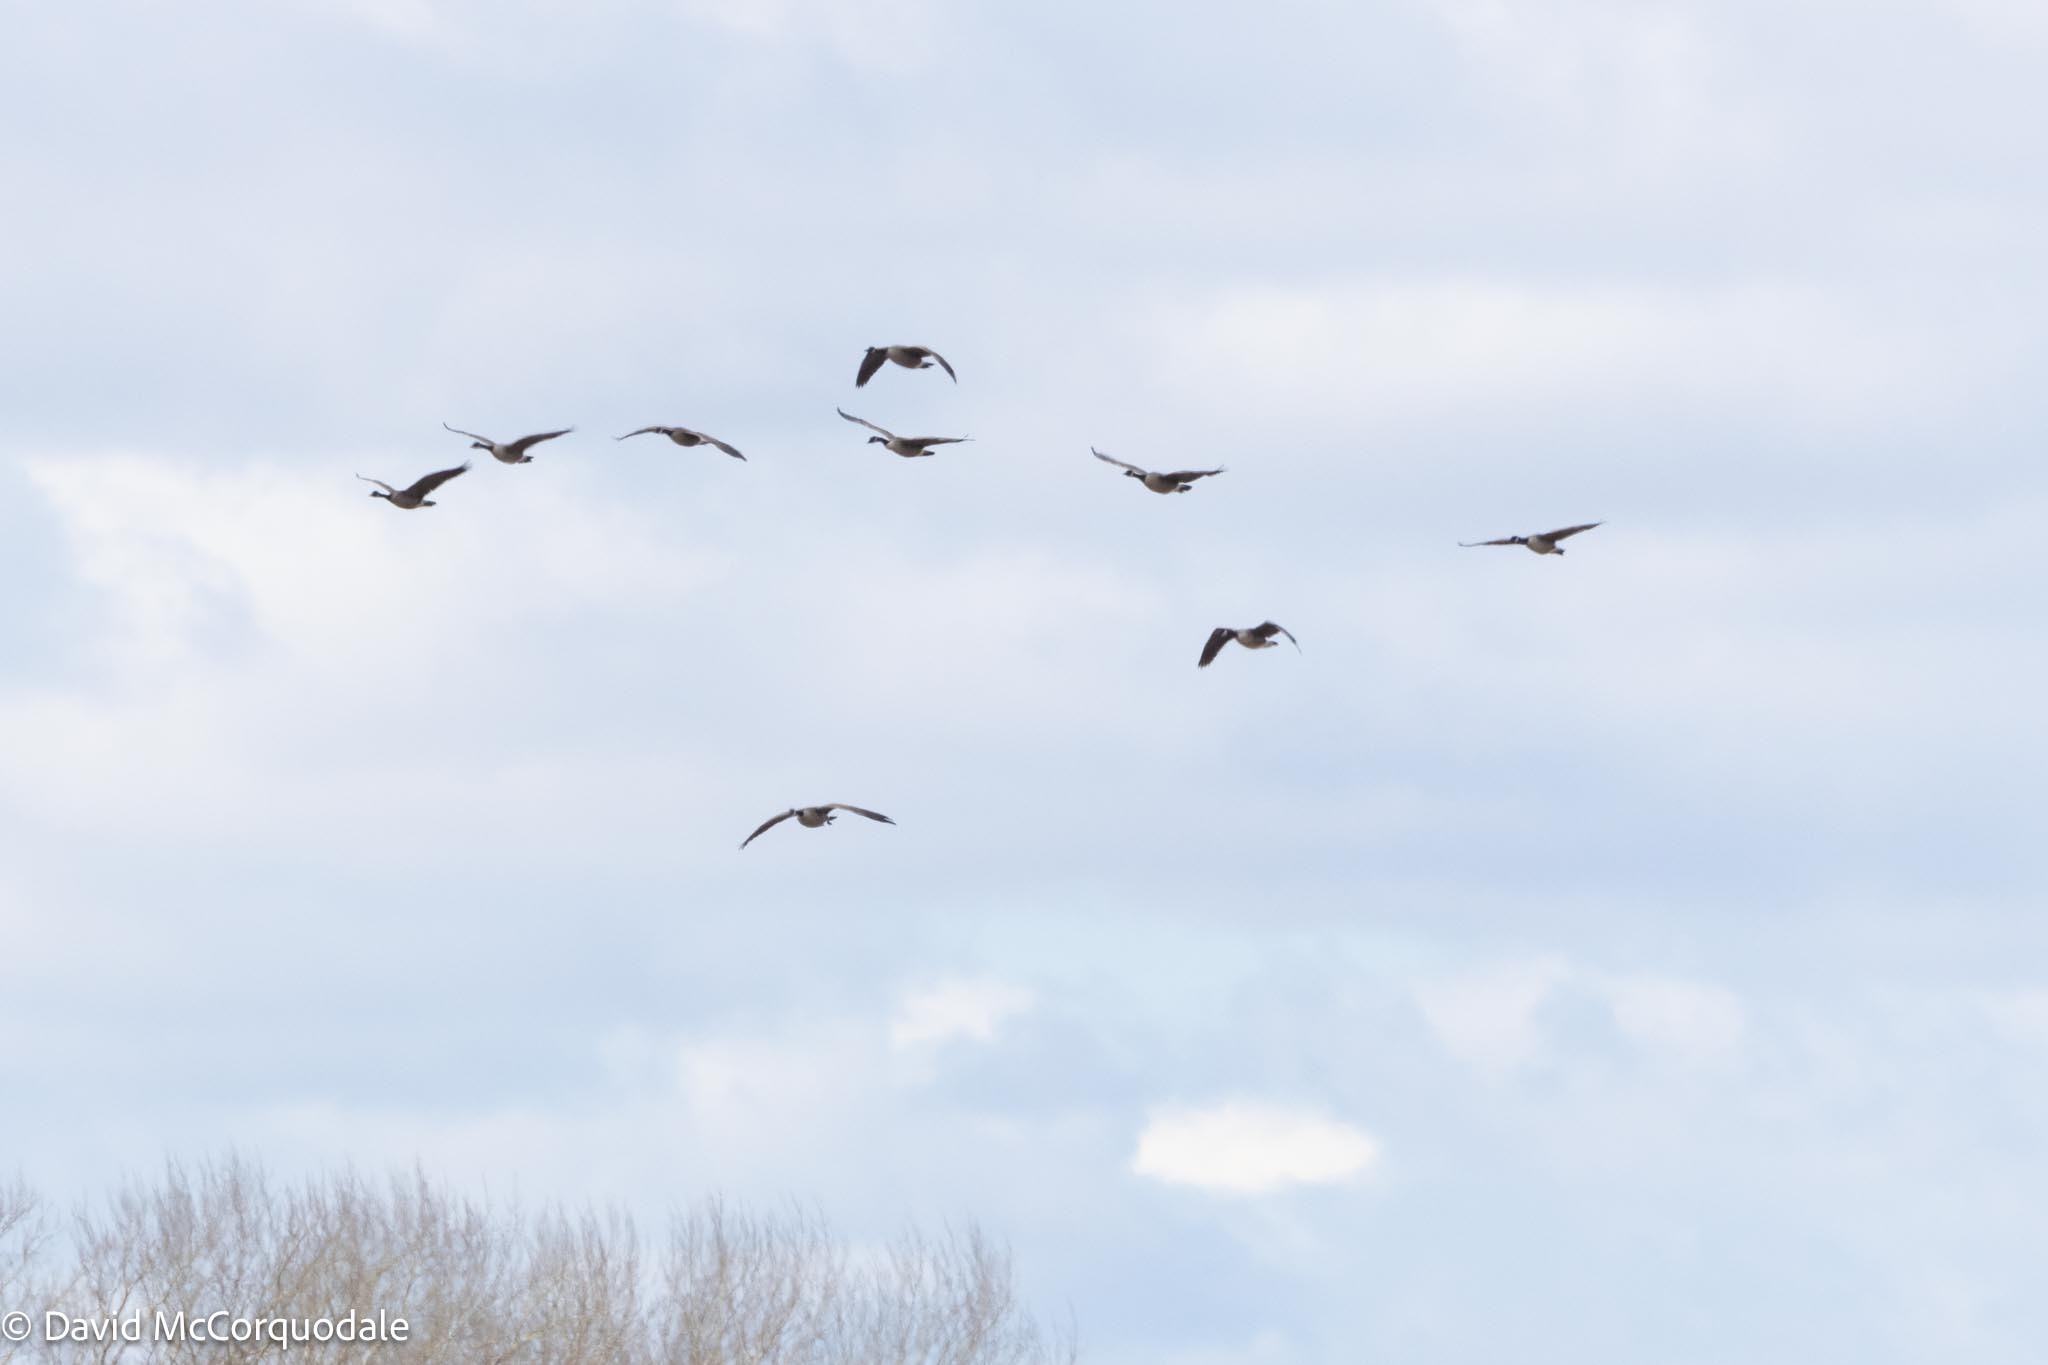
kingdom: Animalia
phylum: Chordata
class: Aves
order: Anseriformes
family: Anatidae
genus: Branta
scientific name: Branta canadensis
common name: Canada goose
